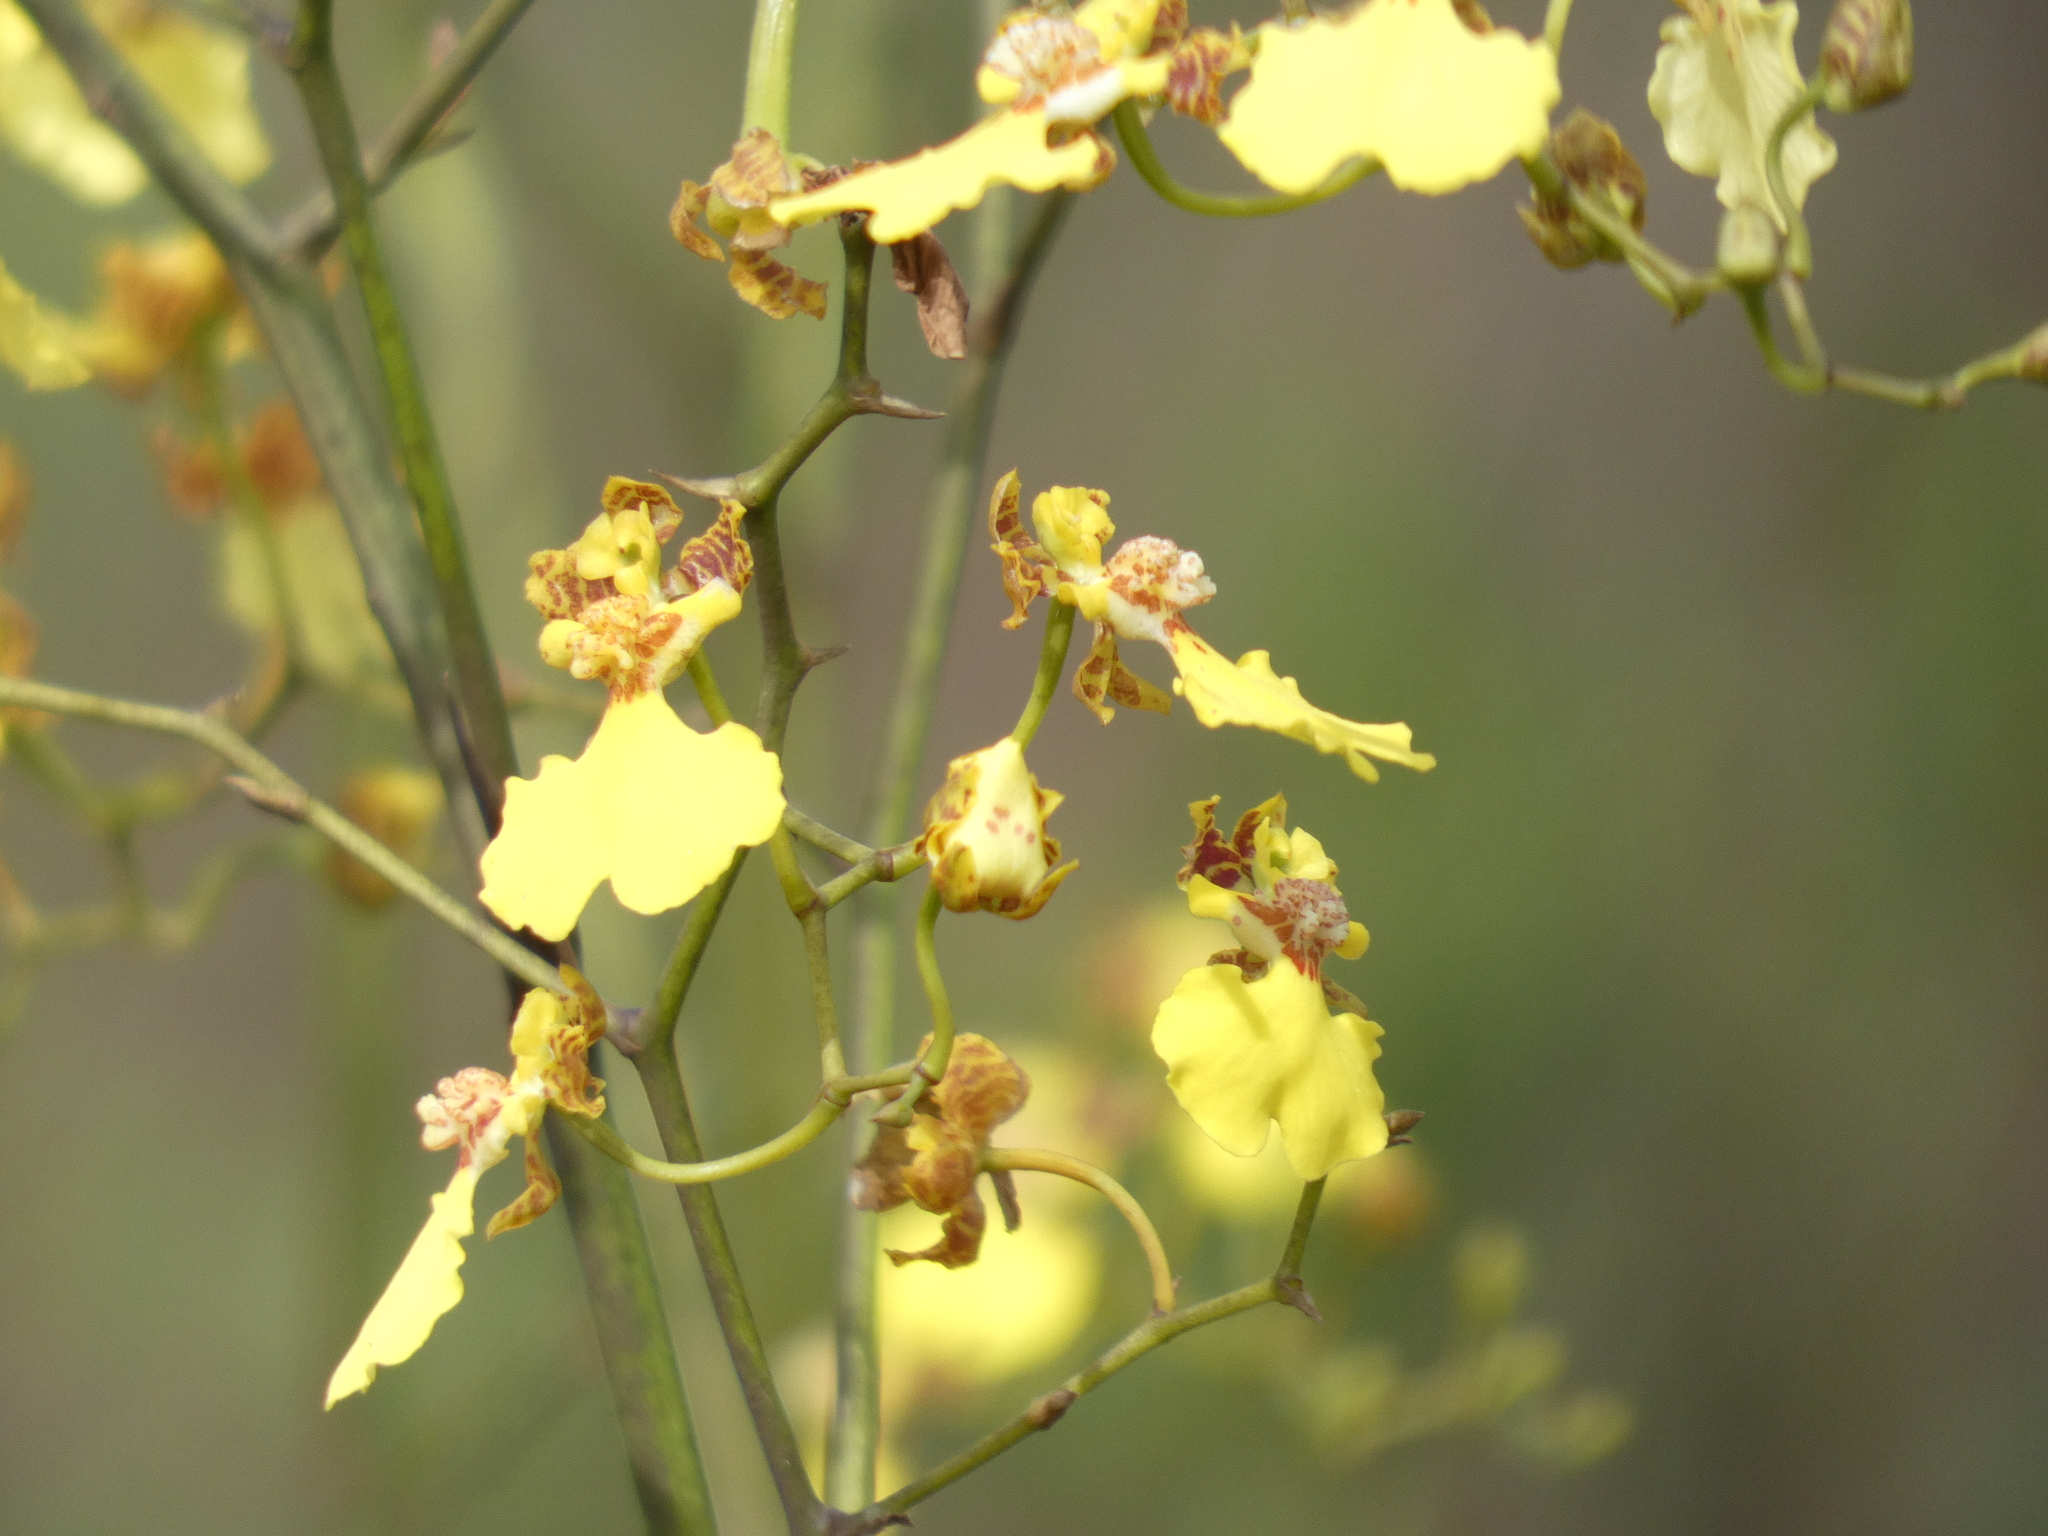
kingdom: Plantae
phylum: Tracheophyta
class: Liliopsida
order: Asparagales
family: Orchidaceae
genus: Gomesa
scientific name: Gomesa ramosa
